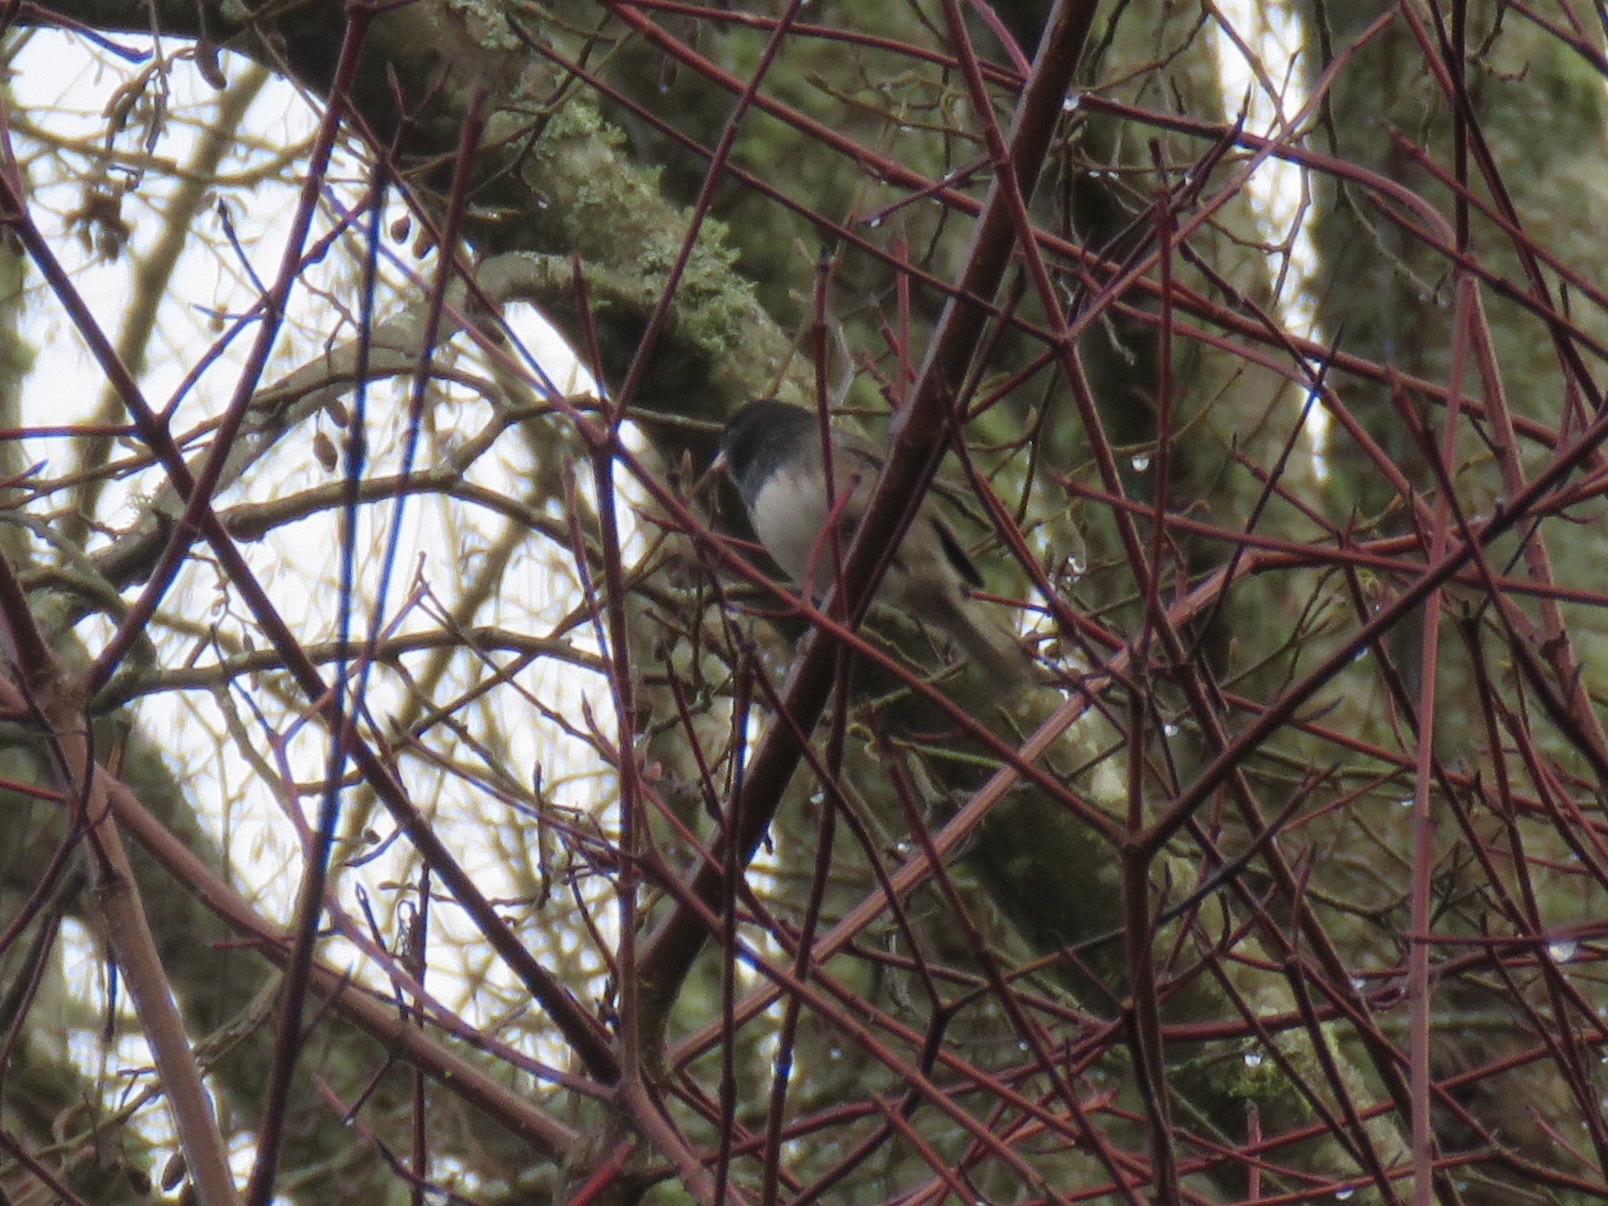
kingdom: Animalia
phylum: Chordata
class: Aves
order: Passeriformes
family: Passerellidae
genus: Junco
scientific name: Junco hyemalis
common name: Dark-eyed junco
